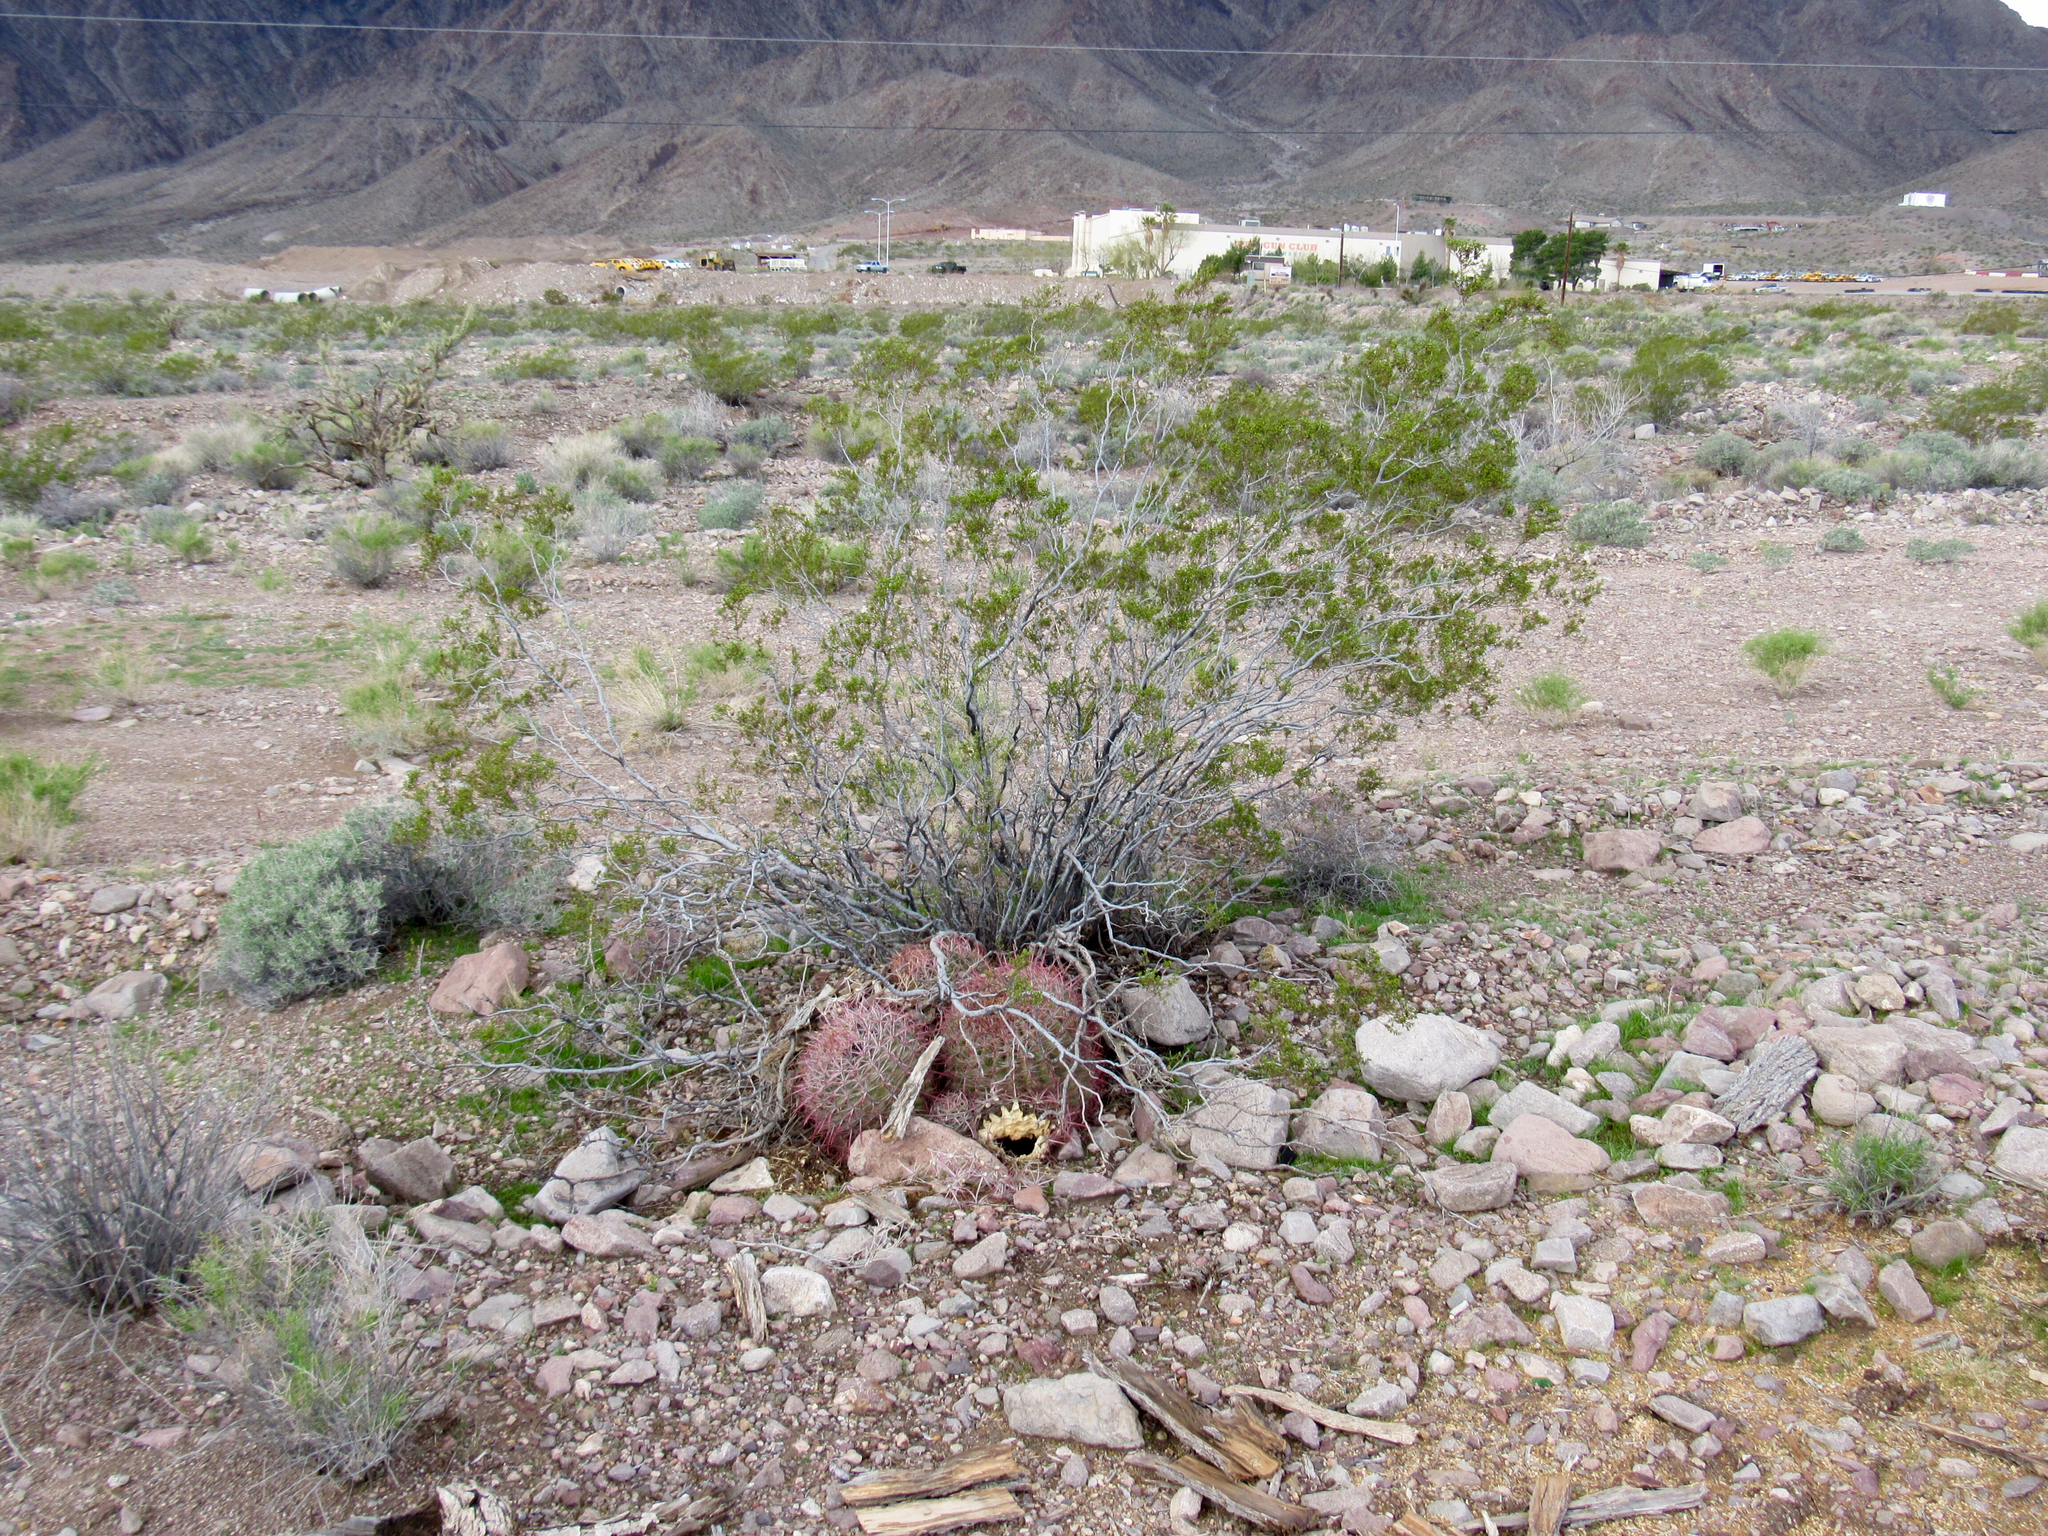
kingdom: Plantae
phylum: Tracheophyta
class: Magnoliopsida
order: Zygophyllales
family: Zygophyllaceae
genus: Larrea
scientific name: Larrea tridentata
